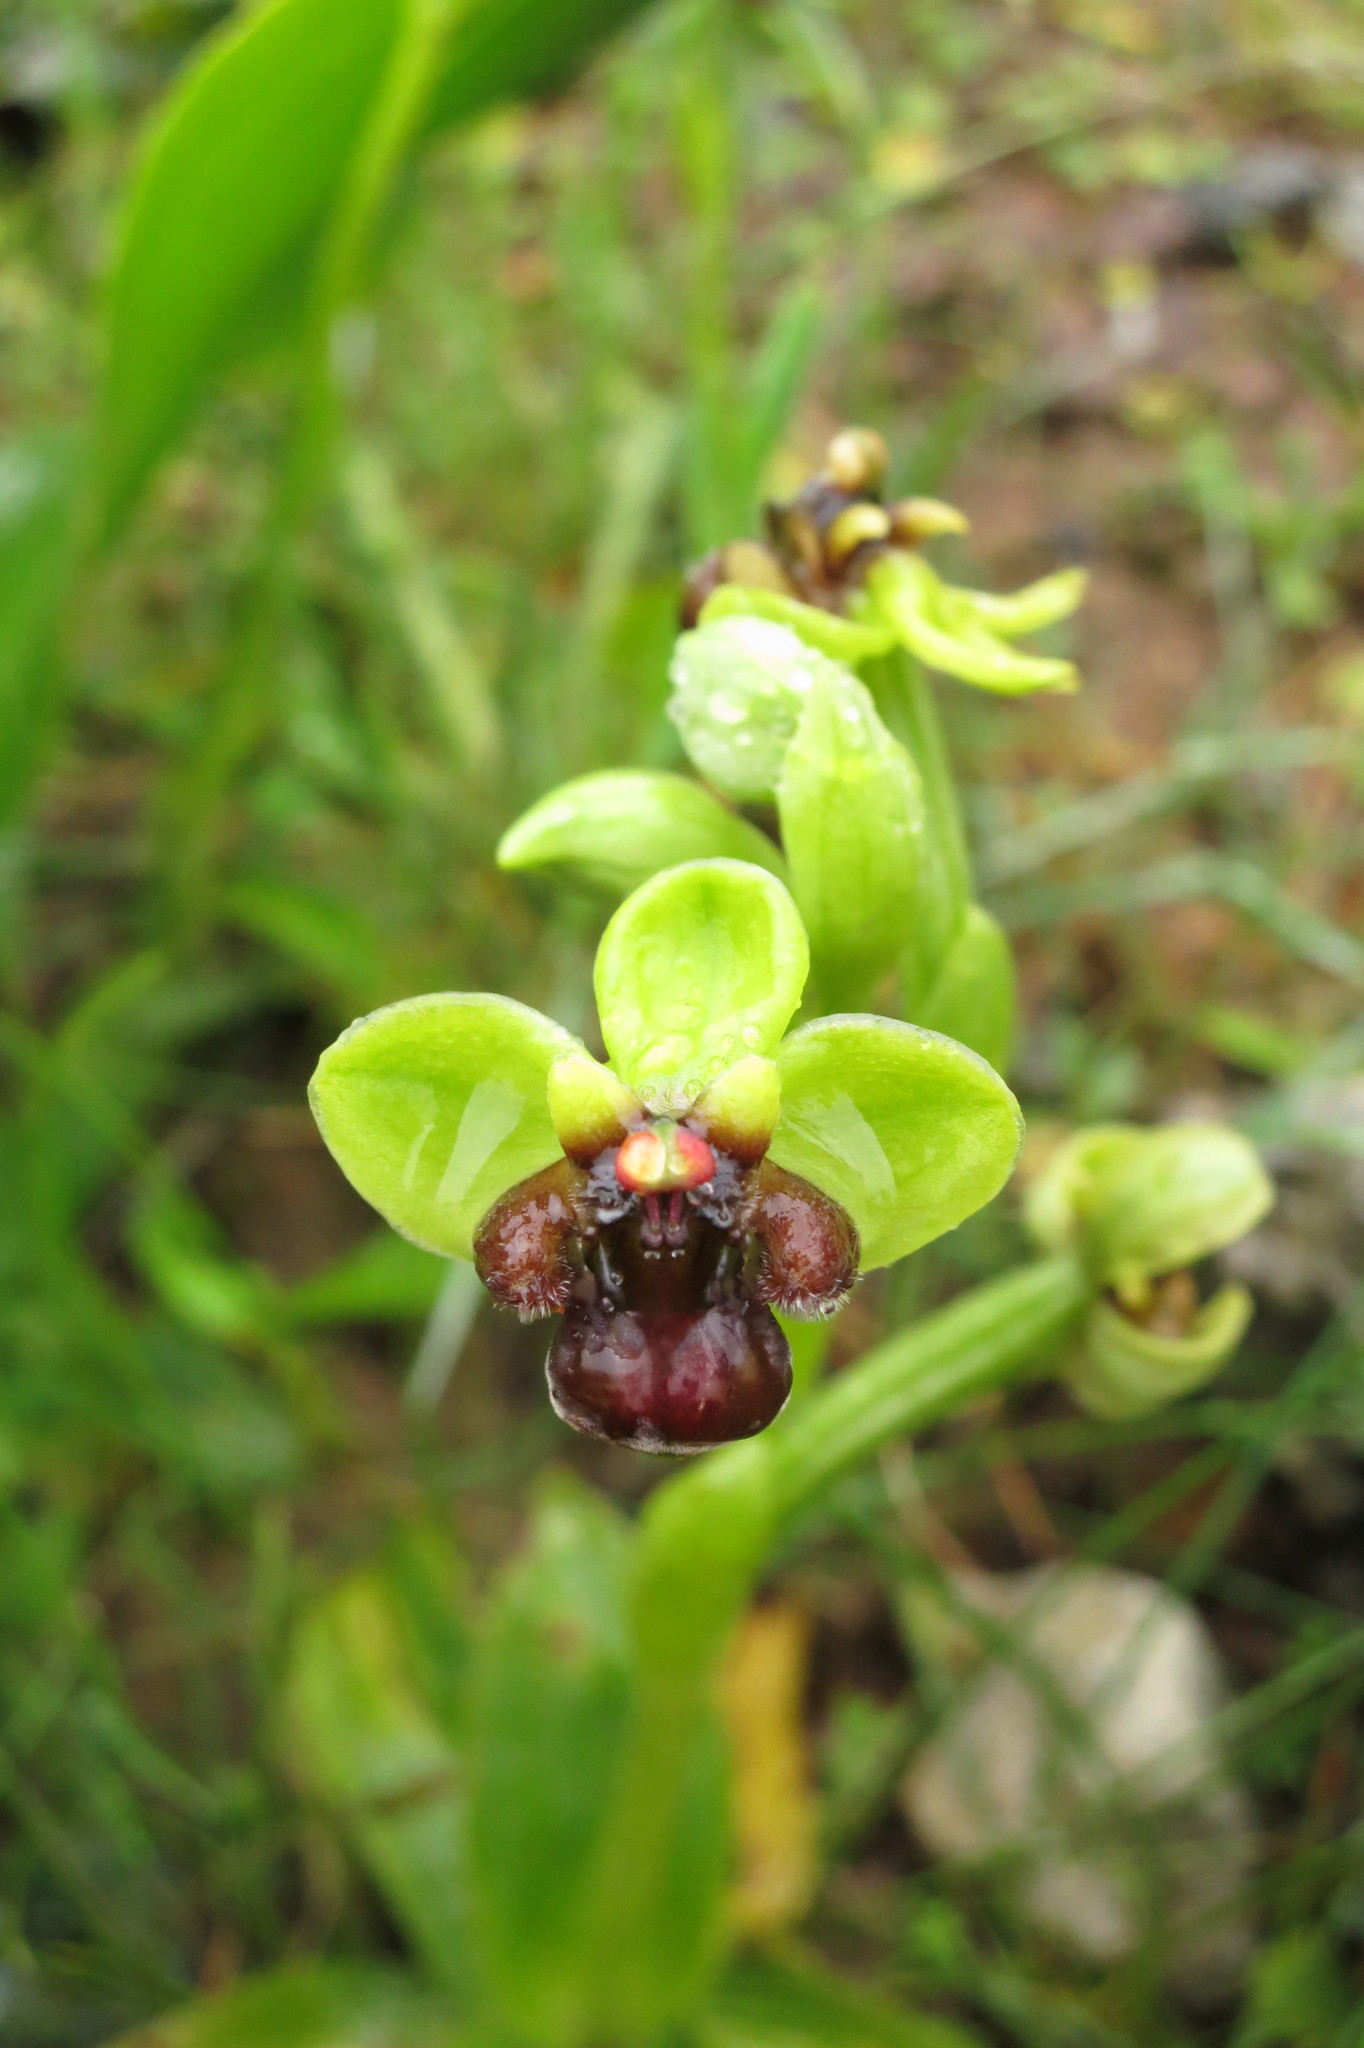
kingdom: Plantae
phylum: Tracheophyta
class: Liliopsida
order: Asparagales
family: Orchidaceae
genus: Ophrys
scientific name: Ophrys bombyliflora
